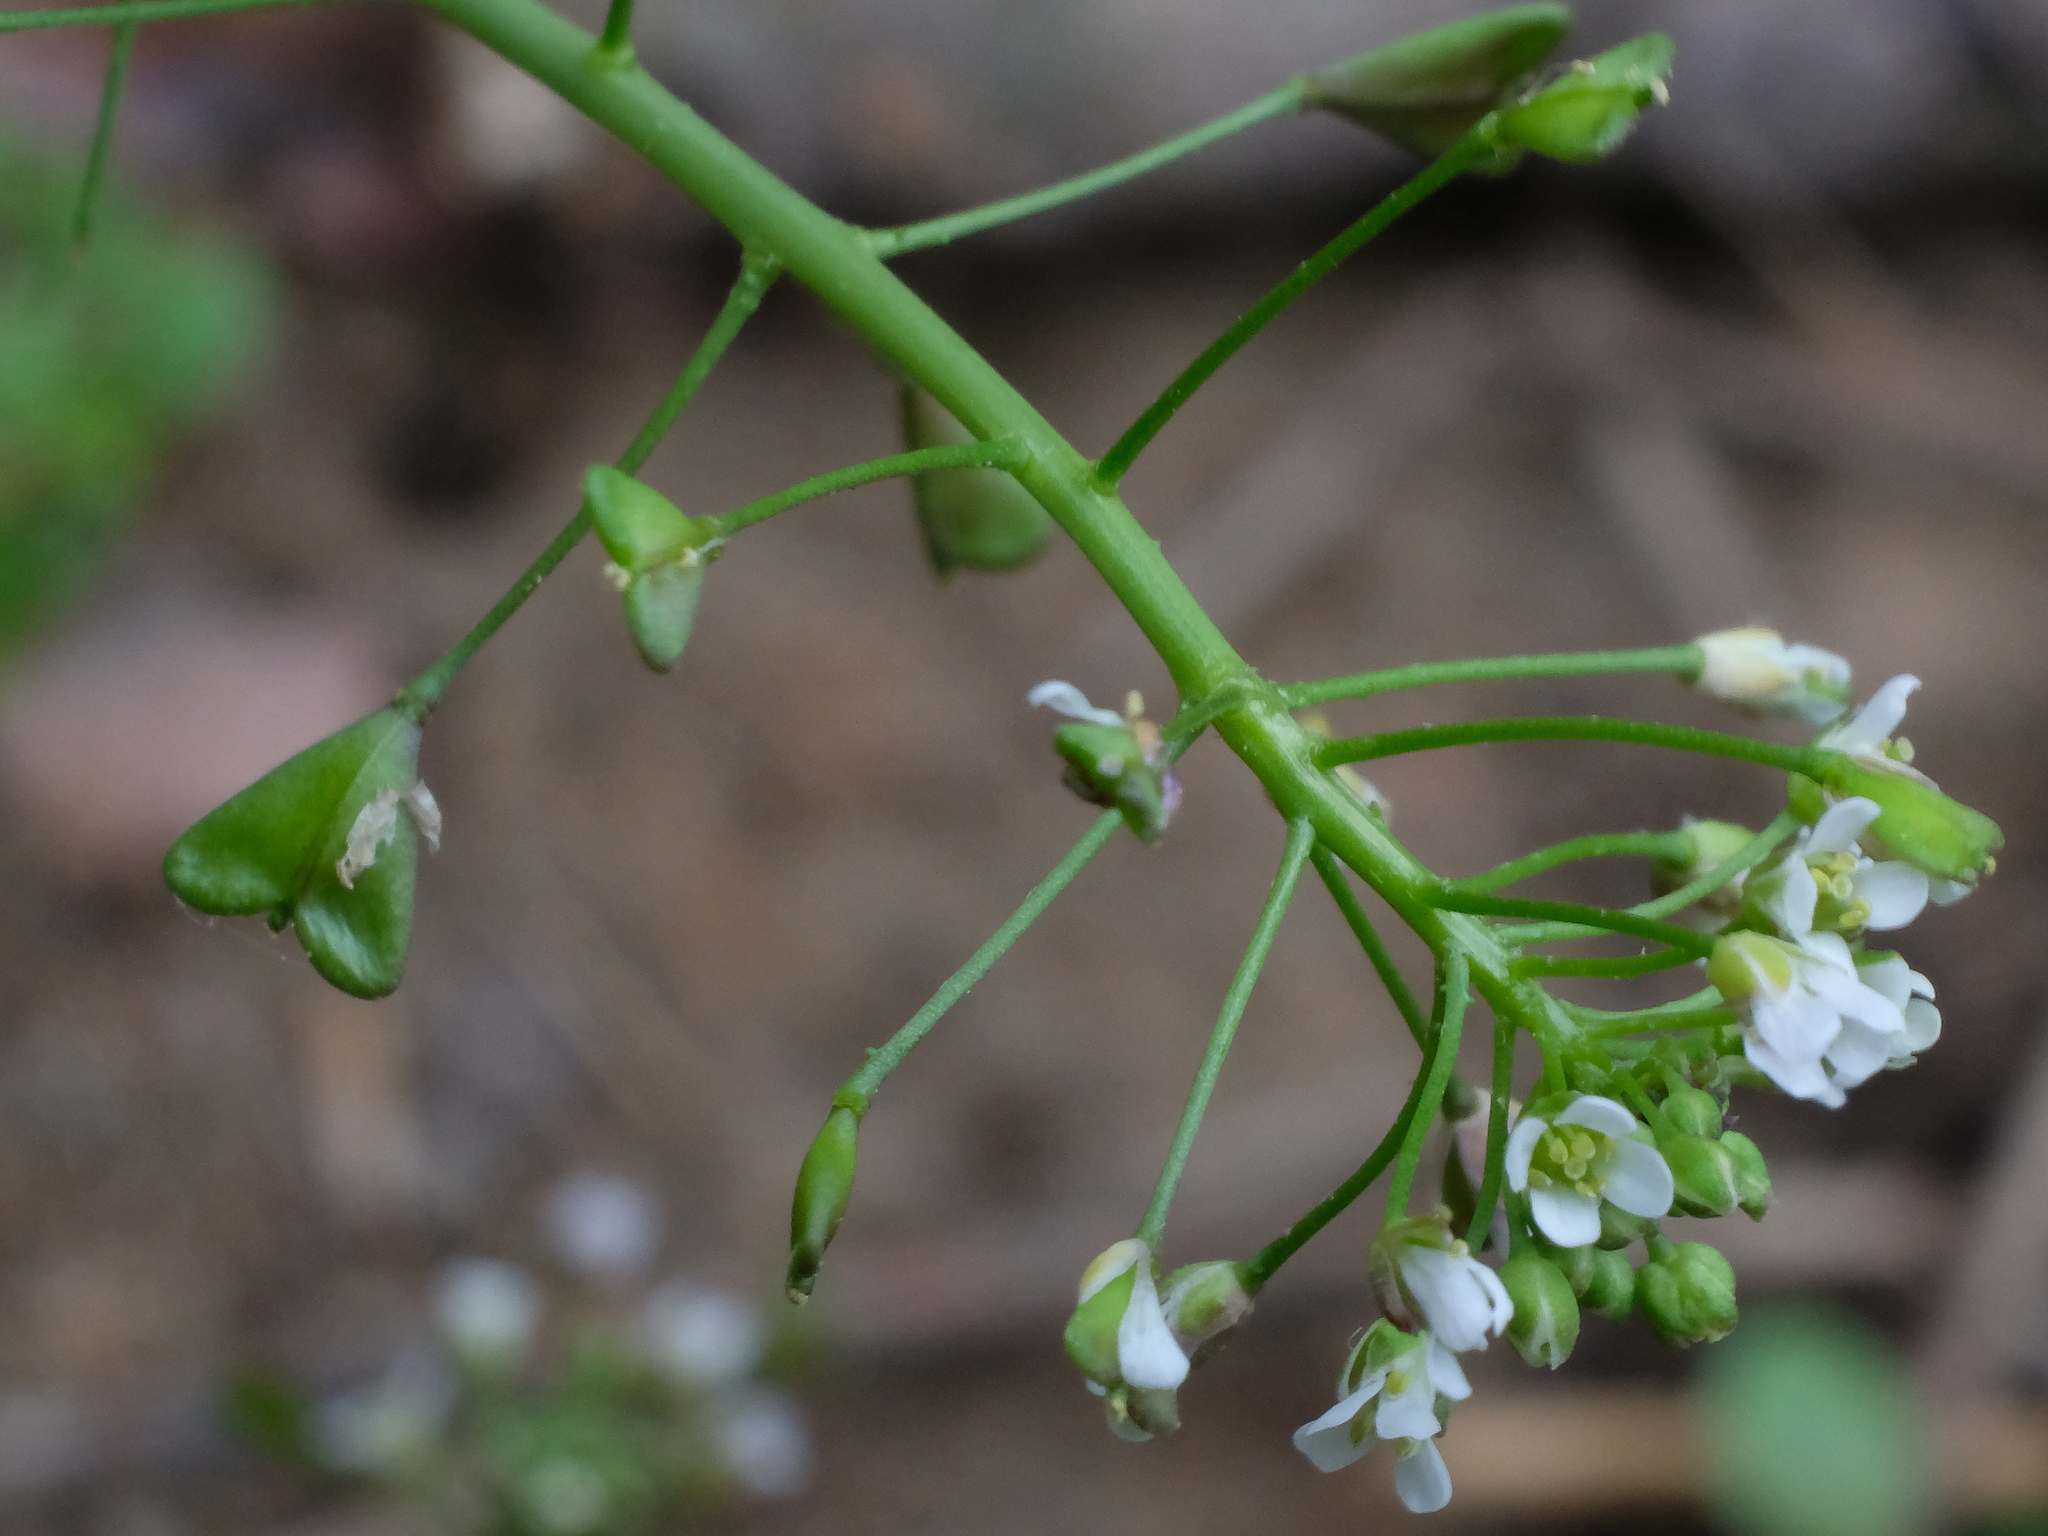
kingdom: Plantae
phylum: Tracheophyta
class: Magnoliopsida
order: Brassicales
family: Brassicaceae
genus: Capsella
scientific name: Capsella bursa-pastoris
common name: Shepherd's purse
